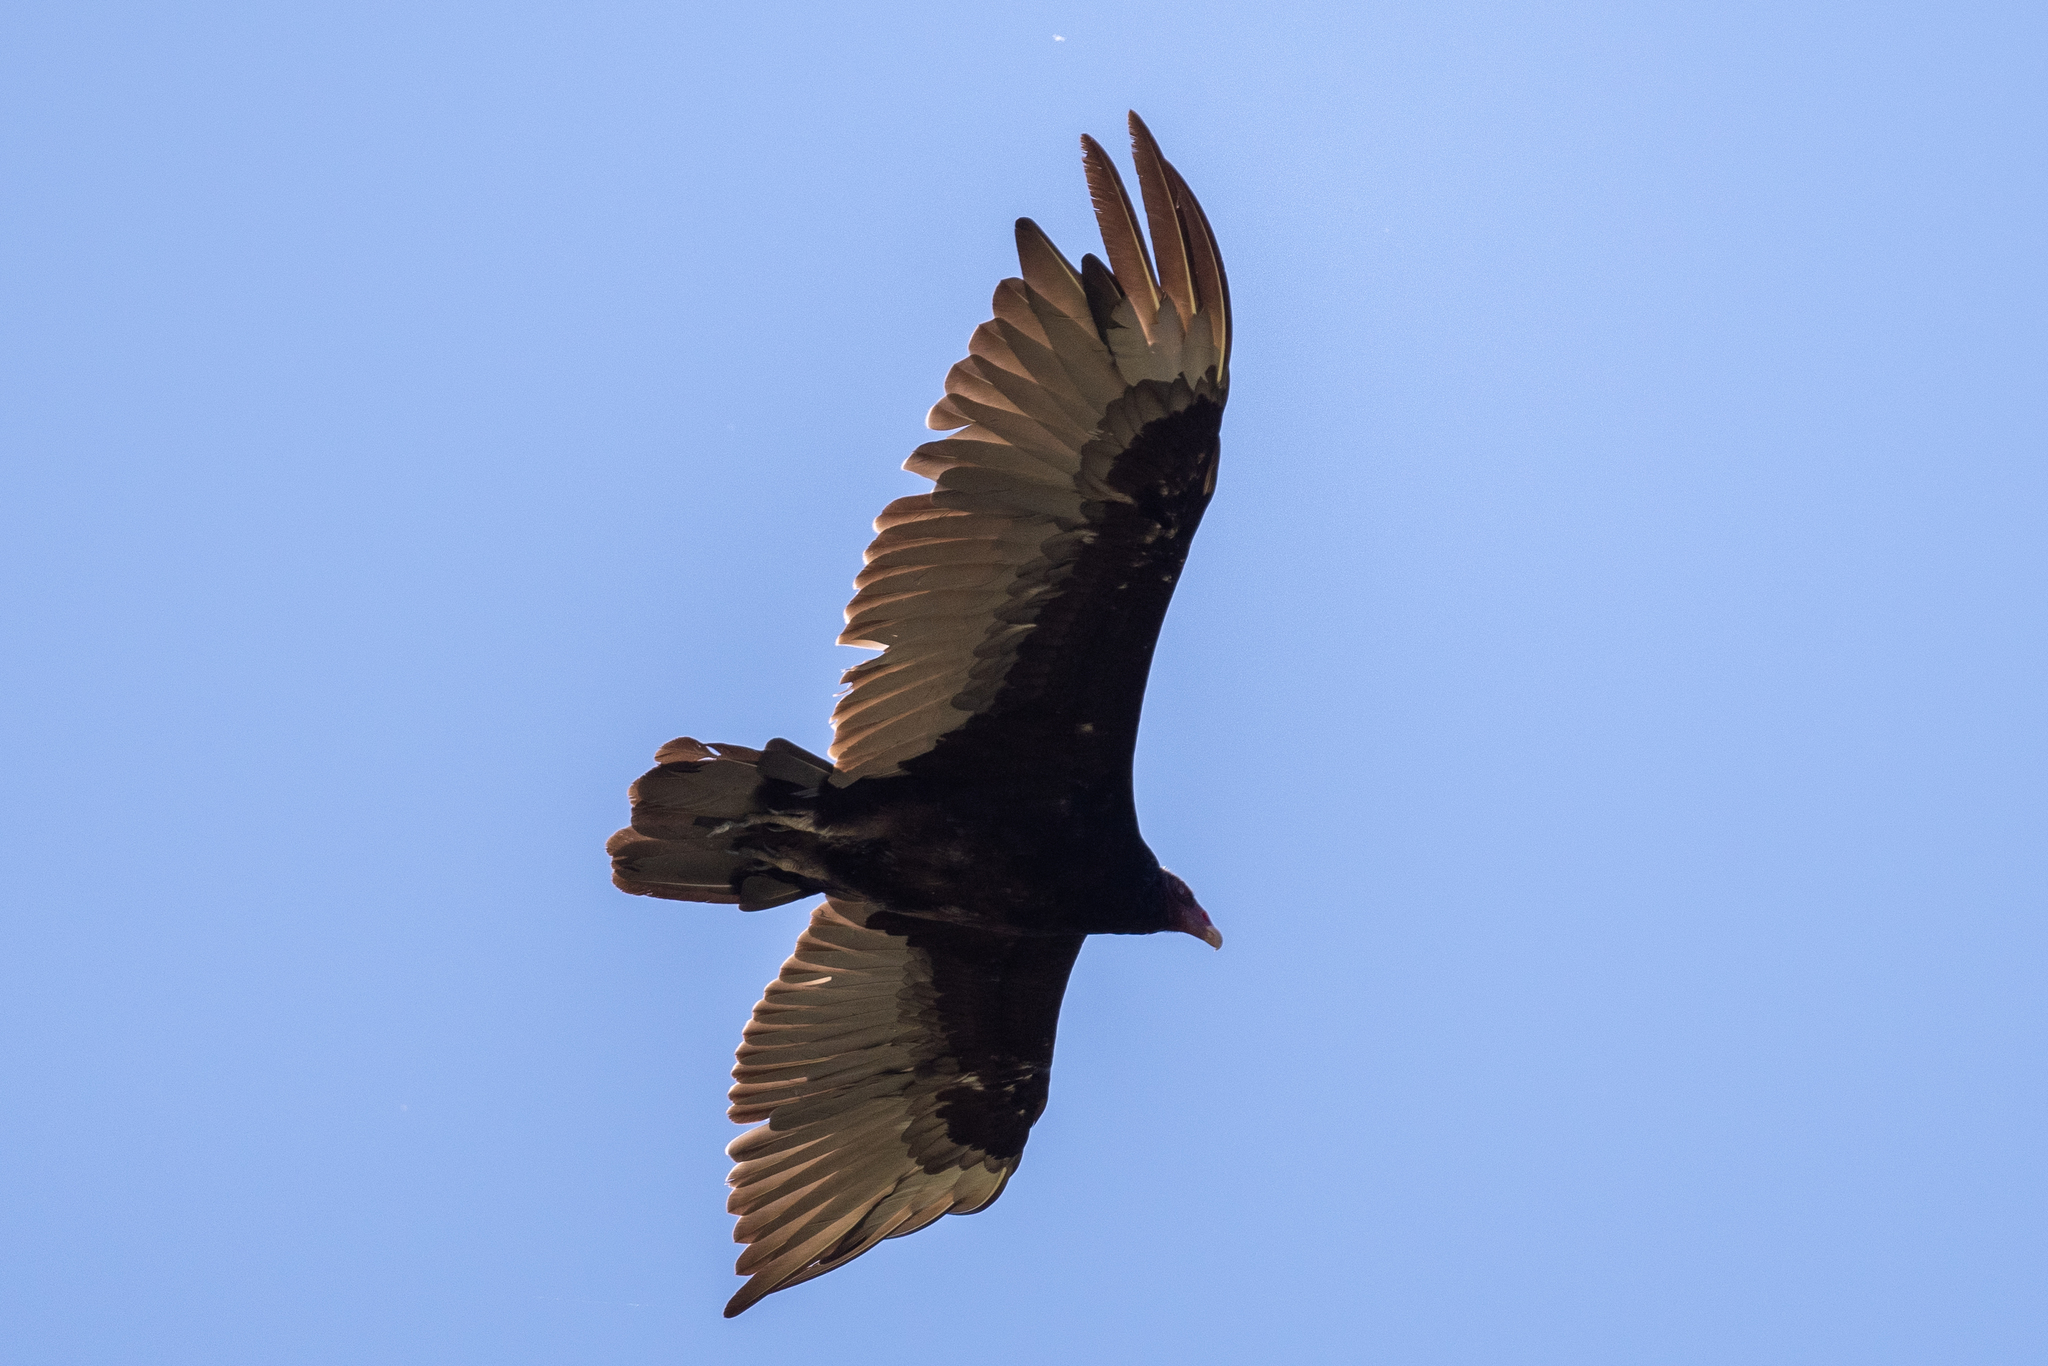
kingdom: Animalia
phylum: Chordata
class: Aves
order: Accipitriformes
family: Cathartidae
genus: Cathartes
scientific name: Cathartes aura
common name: Turkey vulture
